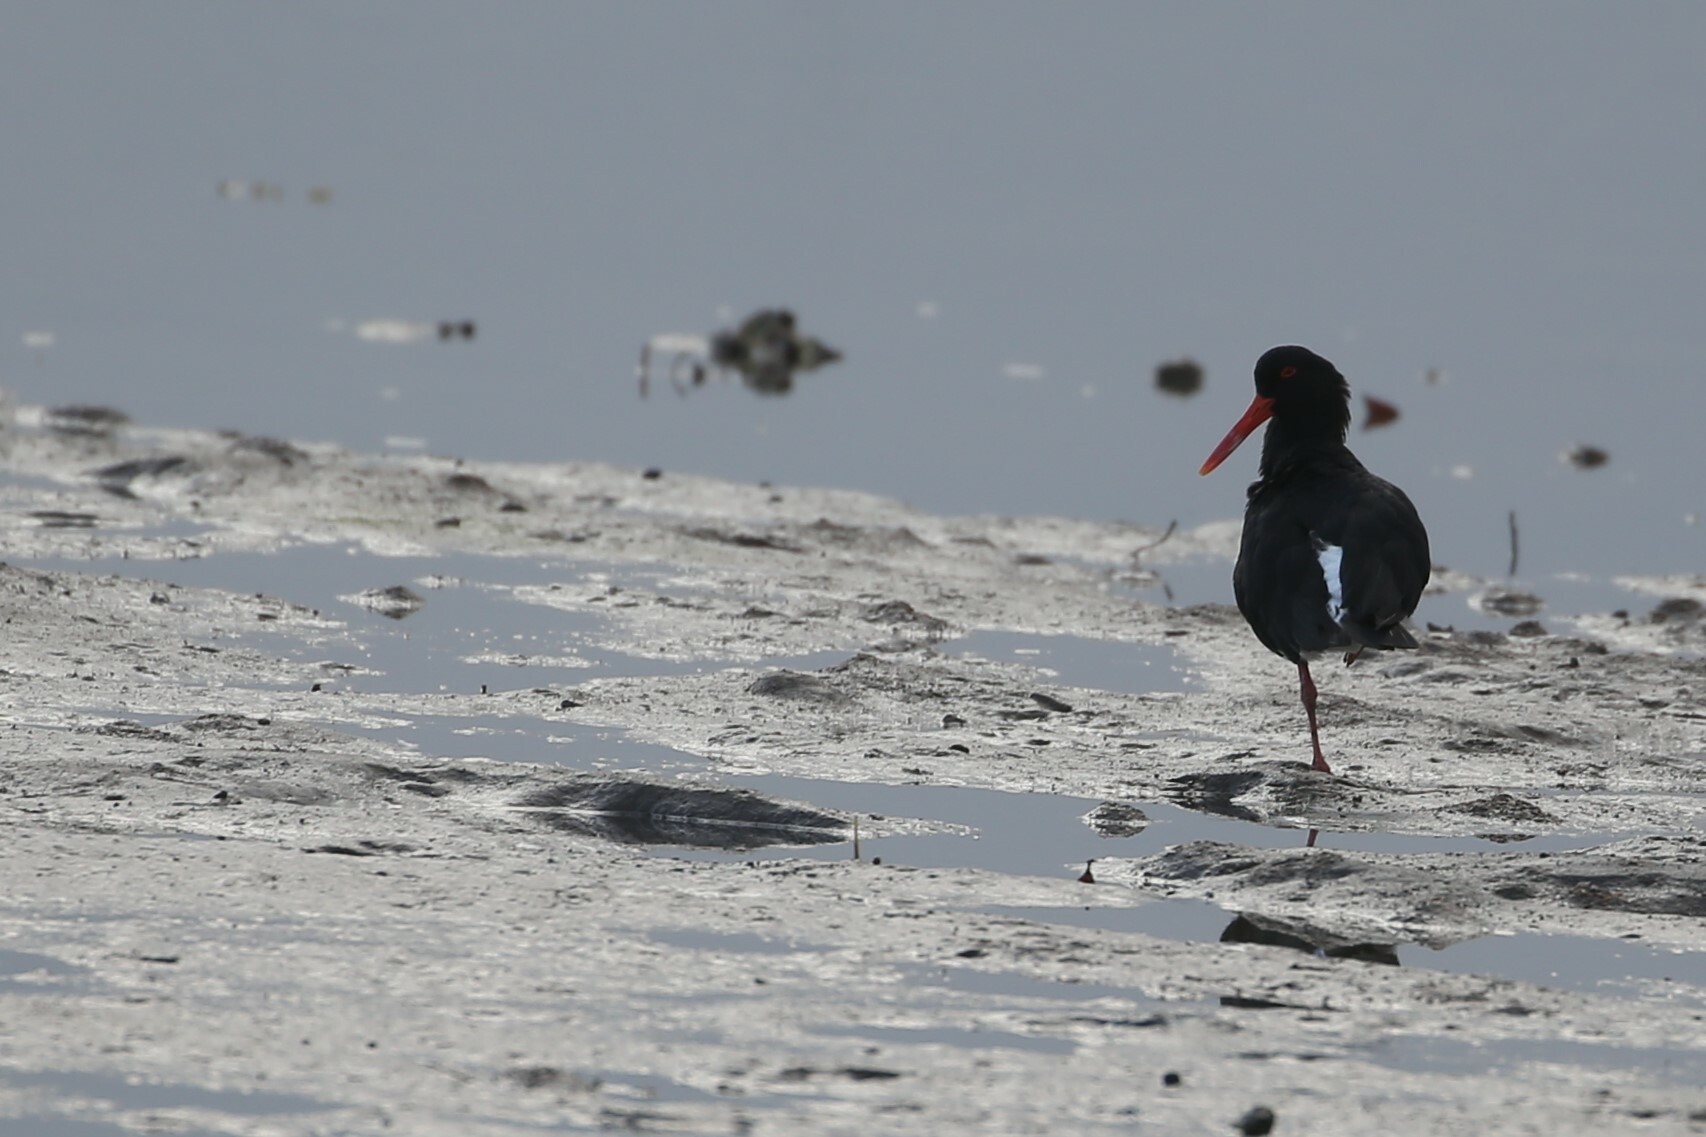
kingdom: Animalia
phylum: Chordata
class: Aves
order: Charadriiformes
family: Haematopodidae
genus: Haematopus
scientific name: Haematopus longirostris
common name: Pied oystercatcher
